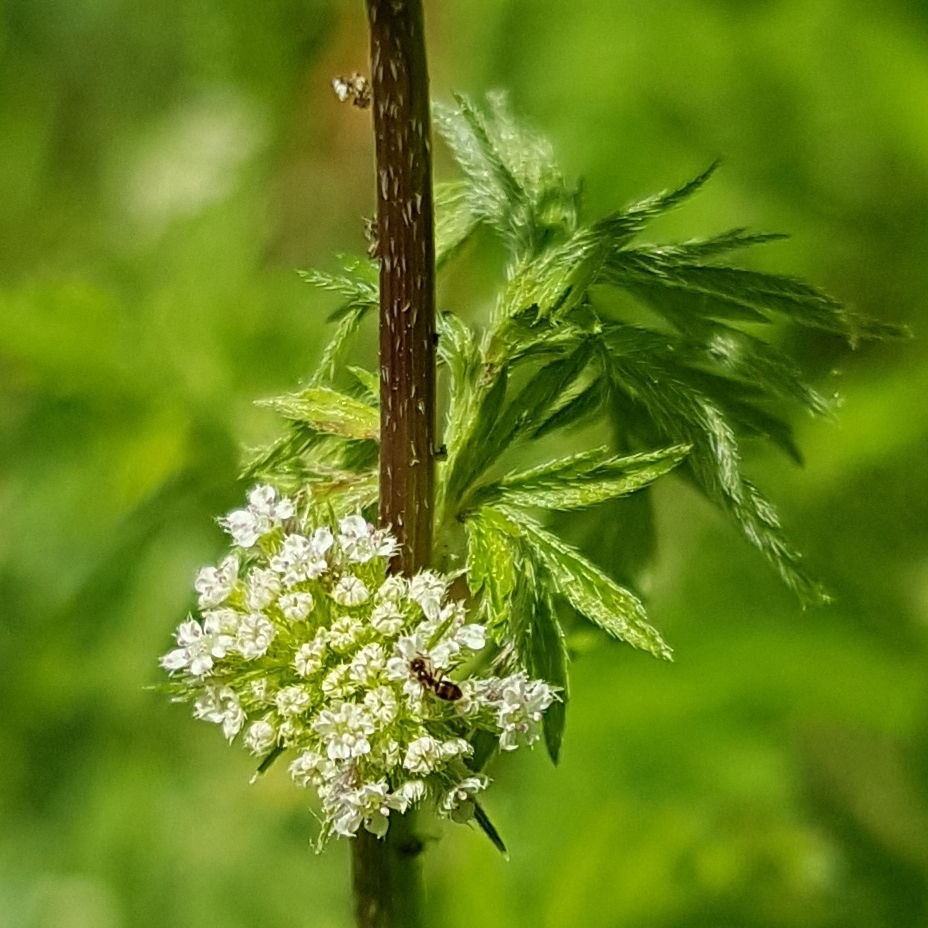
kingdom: Plantae
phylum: Tracheophyta
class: Magnoliopsida
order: Apiales
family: Apiaceae
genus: Torilis
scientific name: Torilis nodosa
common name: Knotted hedge-parsley
